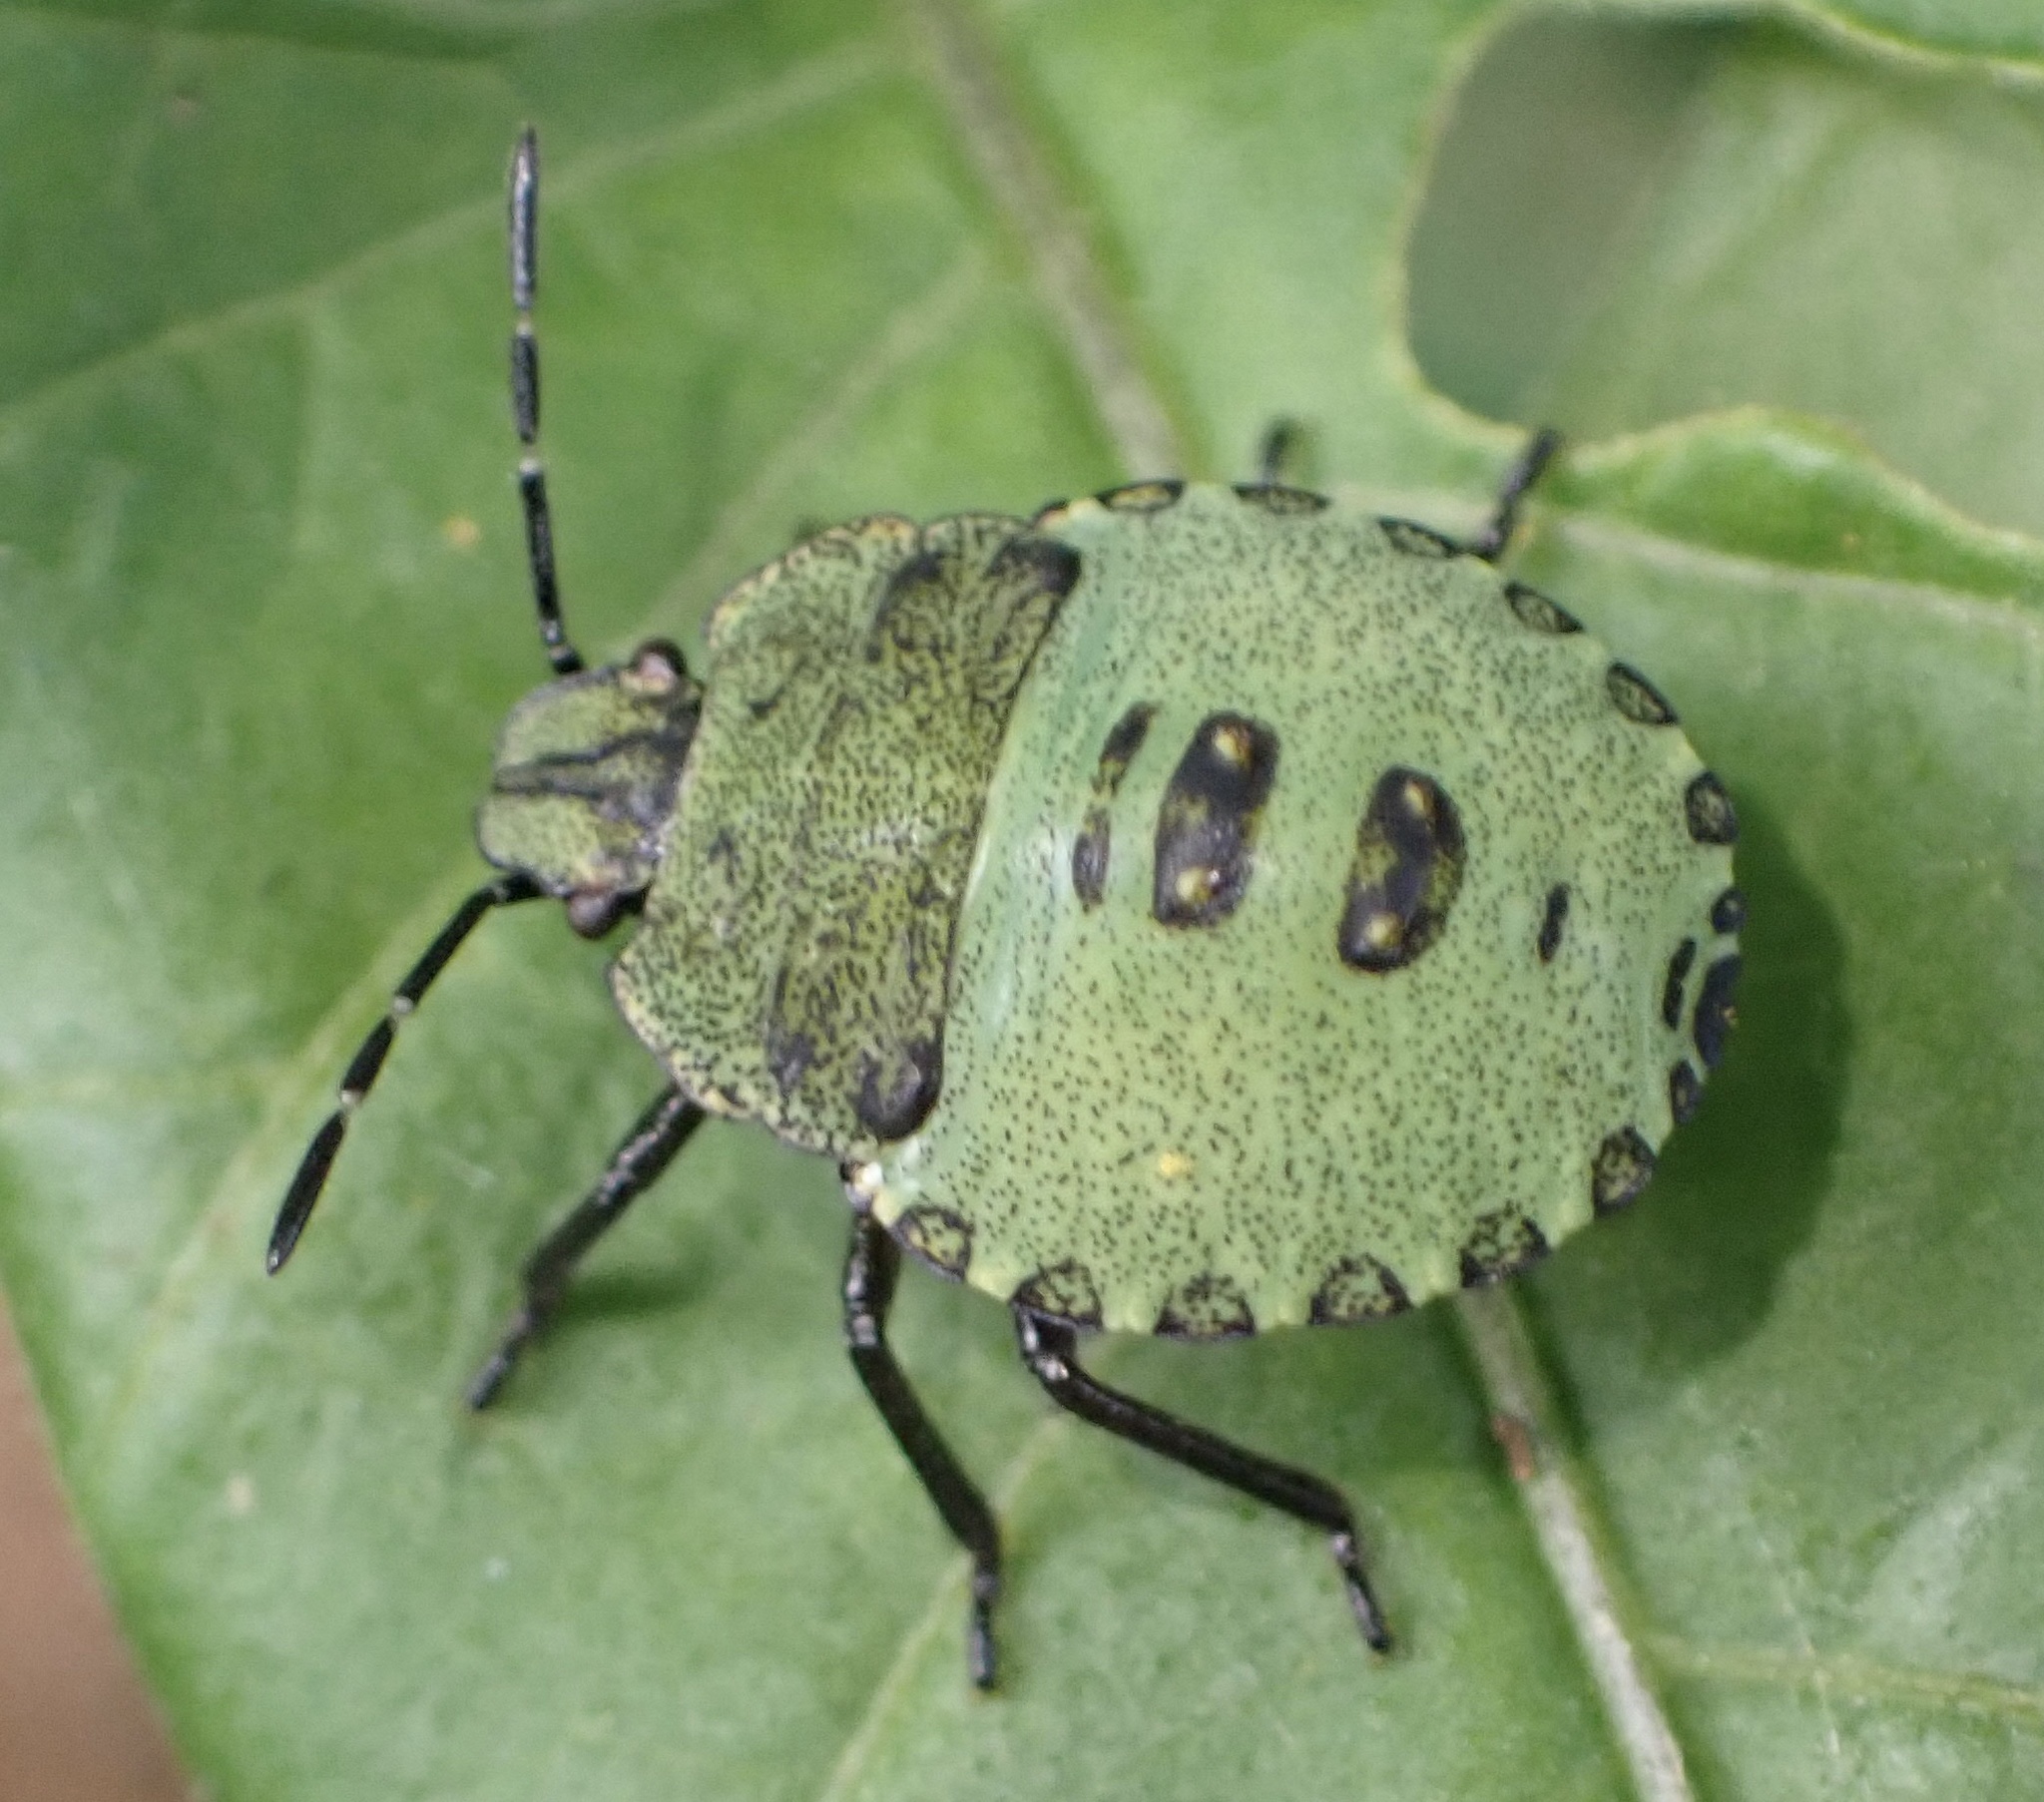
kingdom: Animalia
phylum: Arthropoda
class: Insecta
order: Hemiptera
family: Pentatomidae
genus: Palomena
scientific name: Palomena prasina
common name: Green shieldbug
